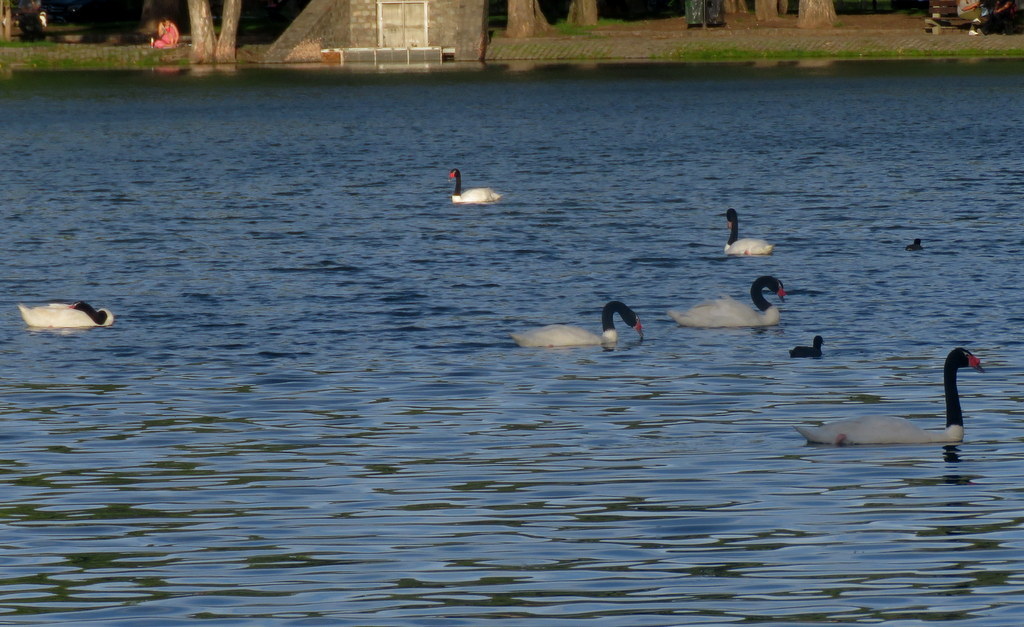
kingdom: Animalia
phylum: Chordata
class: Aves
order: Anseriformes
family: Anatidae
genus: Cygnus
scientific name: Cygnus melancoryphus
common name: Black-necked swan
